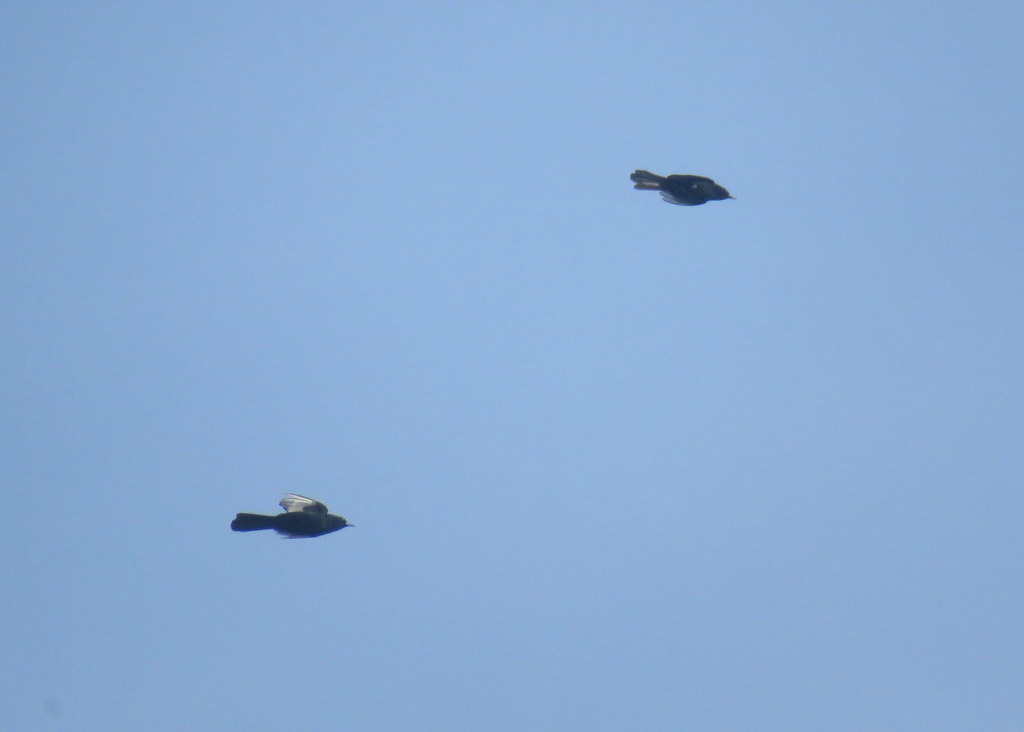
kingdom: Animalia
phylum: Chordata
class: Aves
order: Passeriformes
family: Icteridae
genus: Icterus
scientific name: Icterus cayanensis
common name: Epaulet oriole
